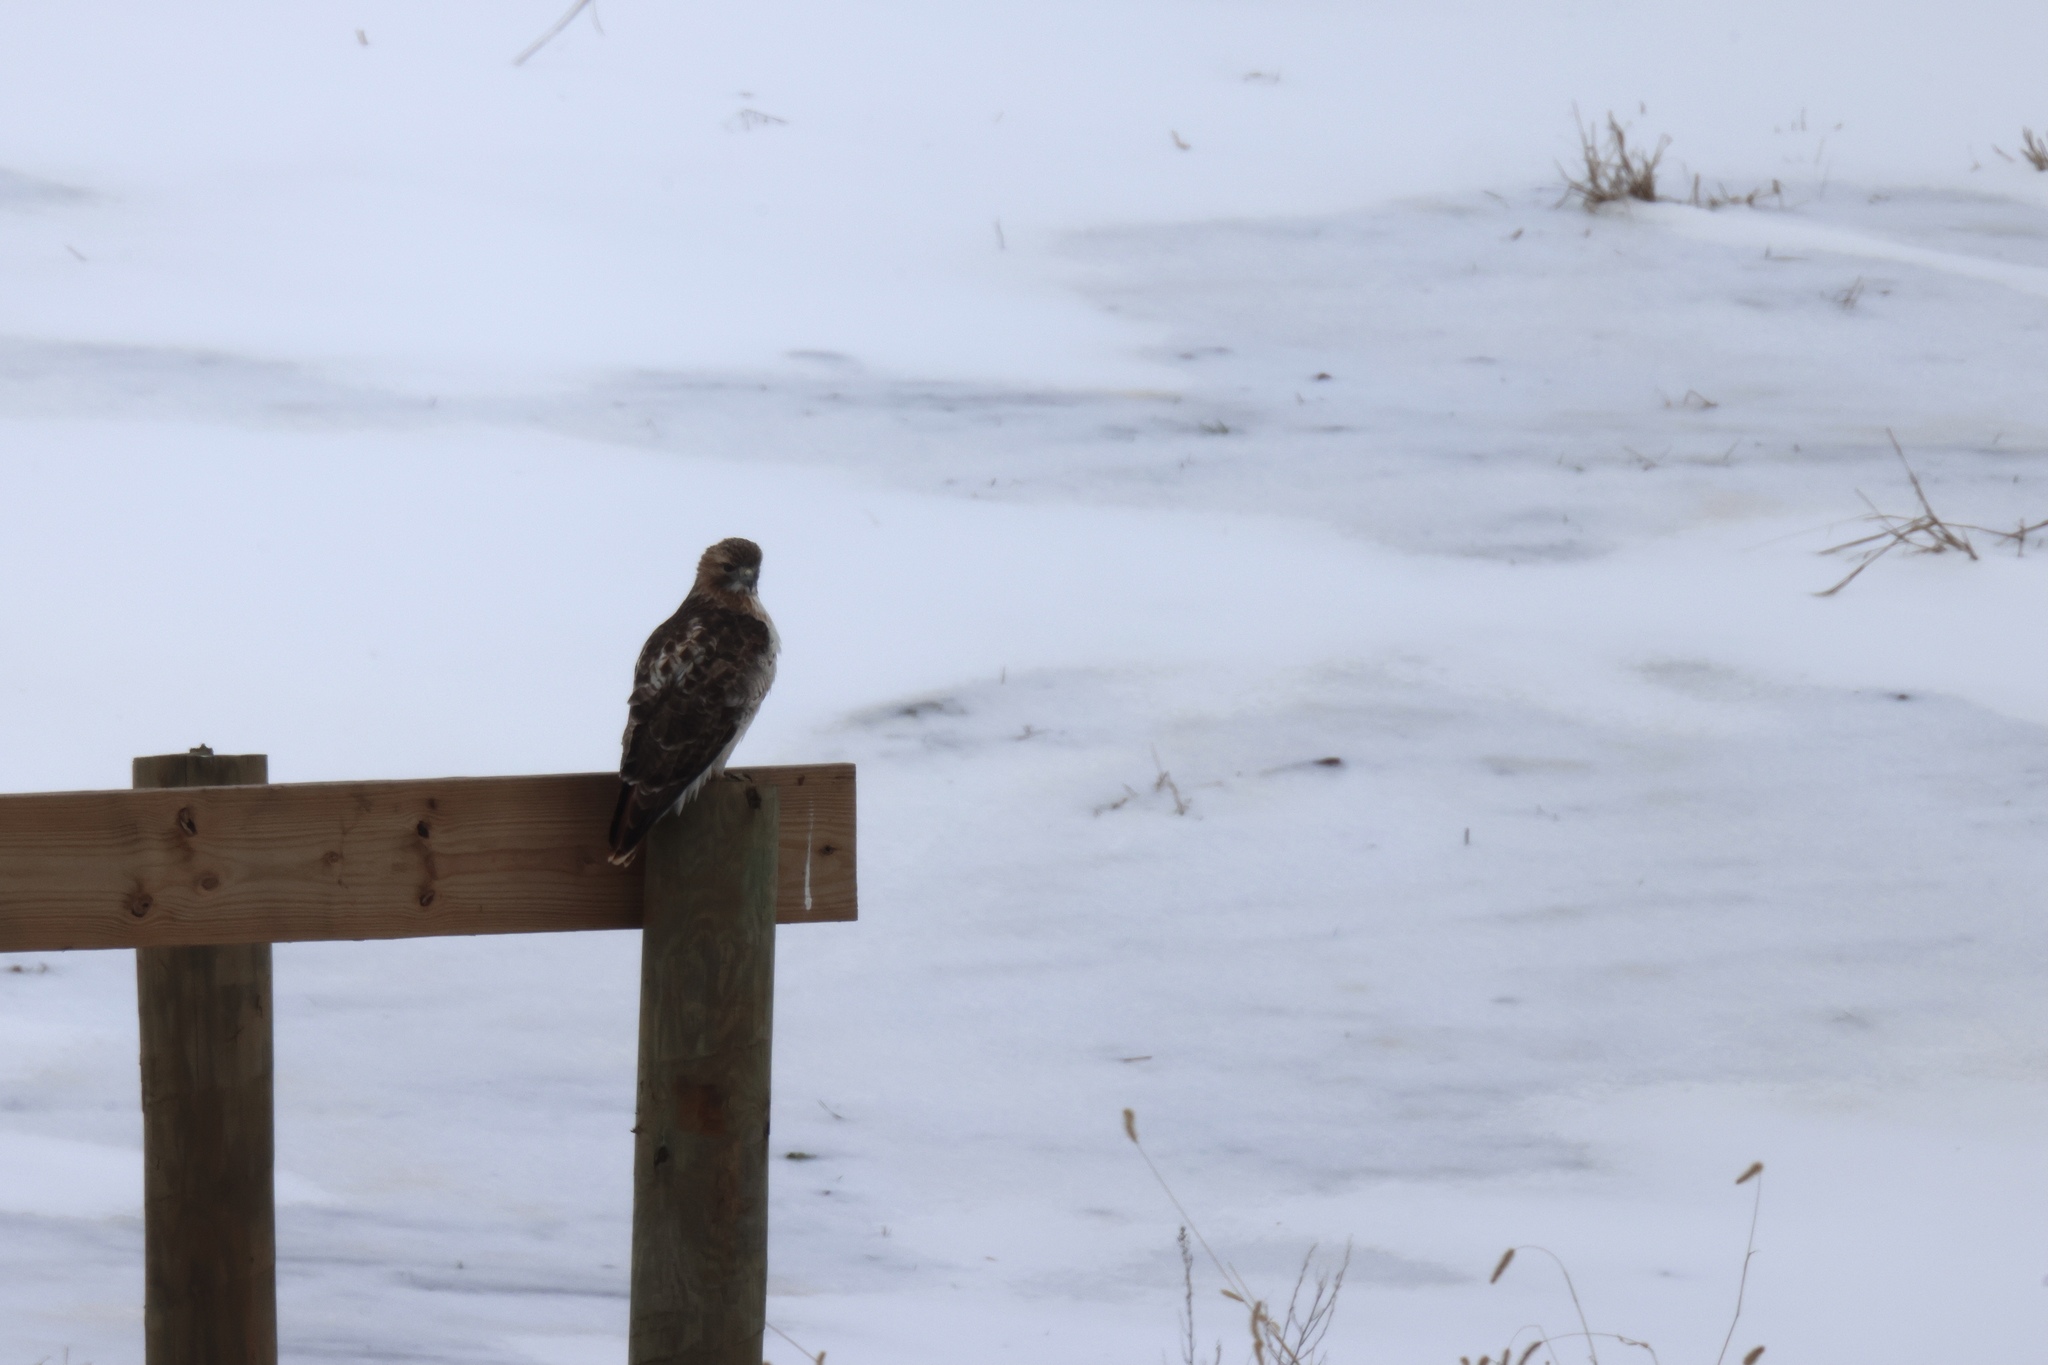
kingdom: Animalia
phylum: Chordata
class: Aves
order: Accipitriformes
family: Accipitridae
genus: Buteo
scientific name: Buteo jamaicensis
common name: Red-tailed hawk
